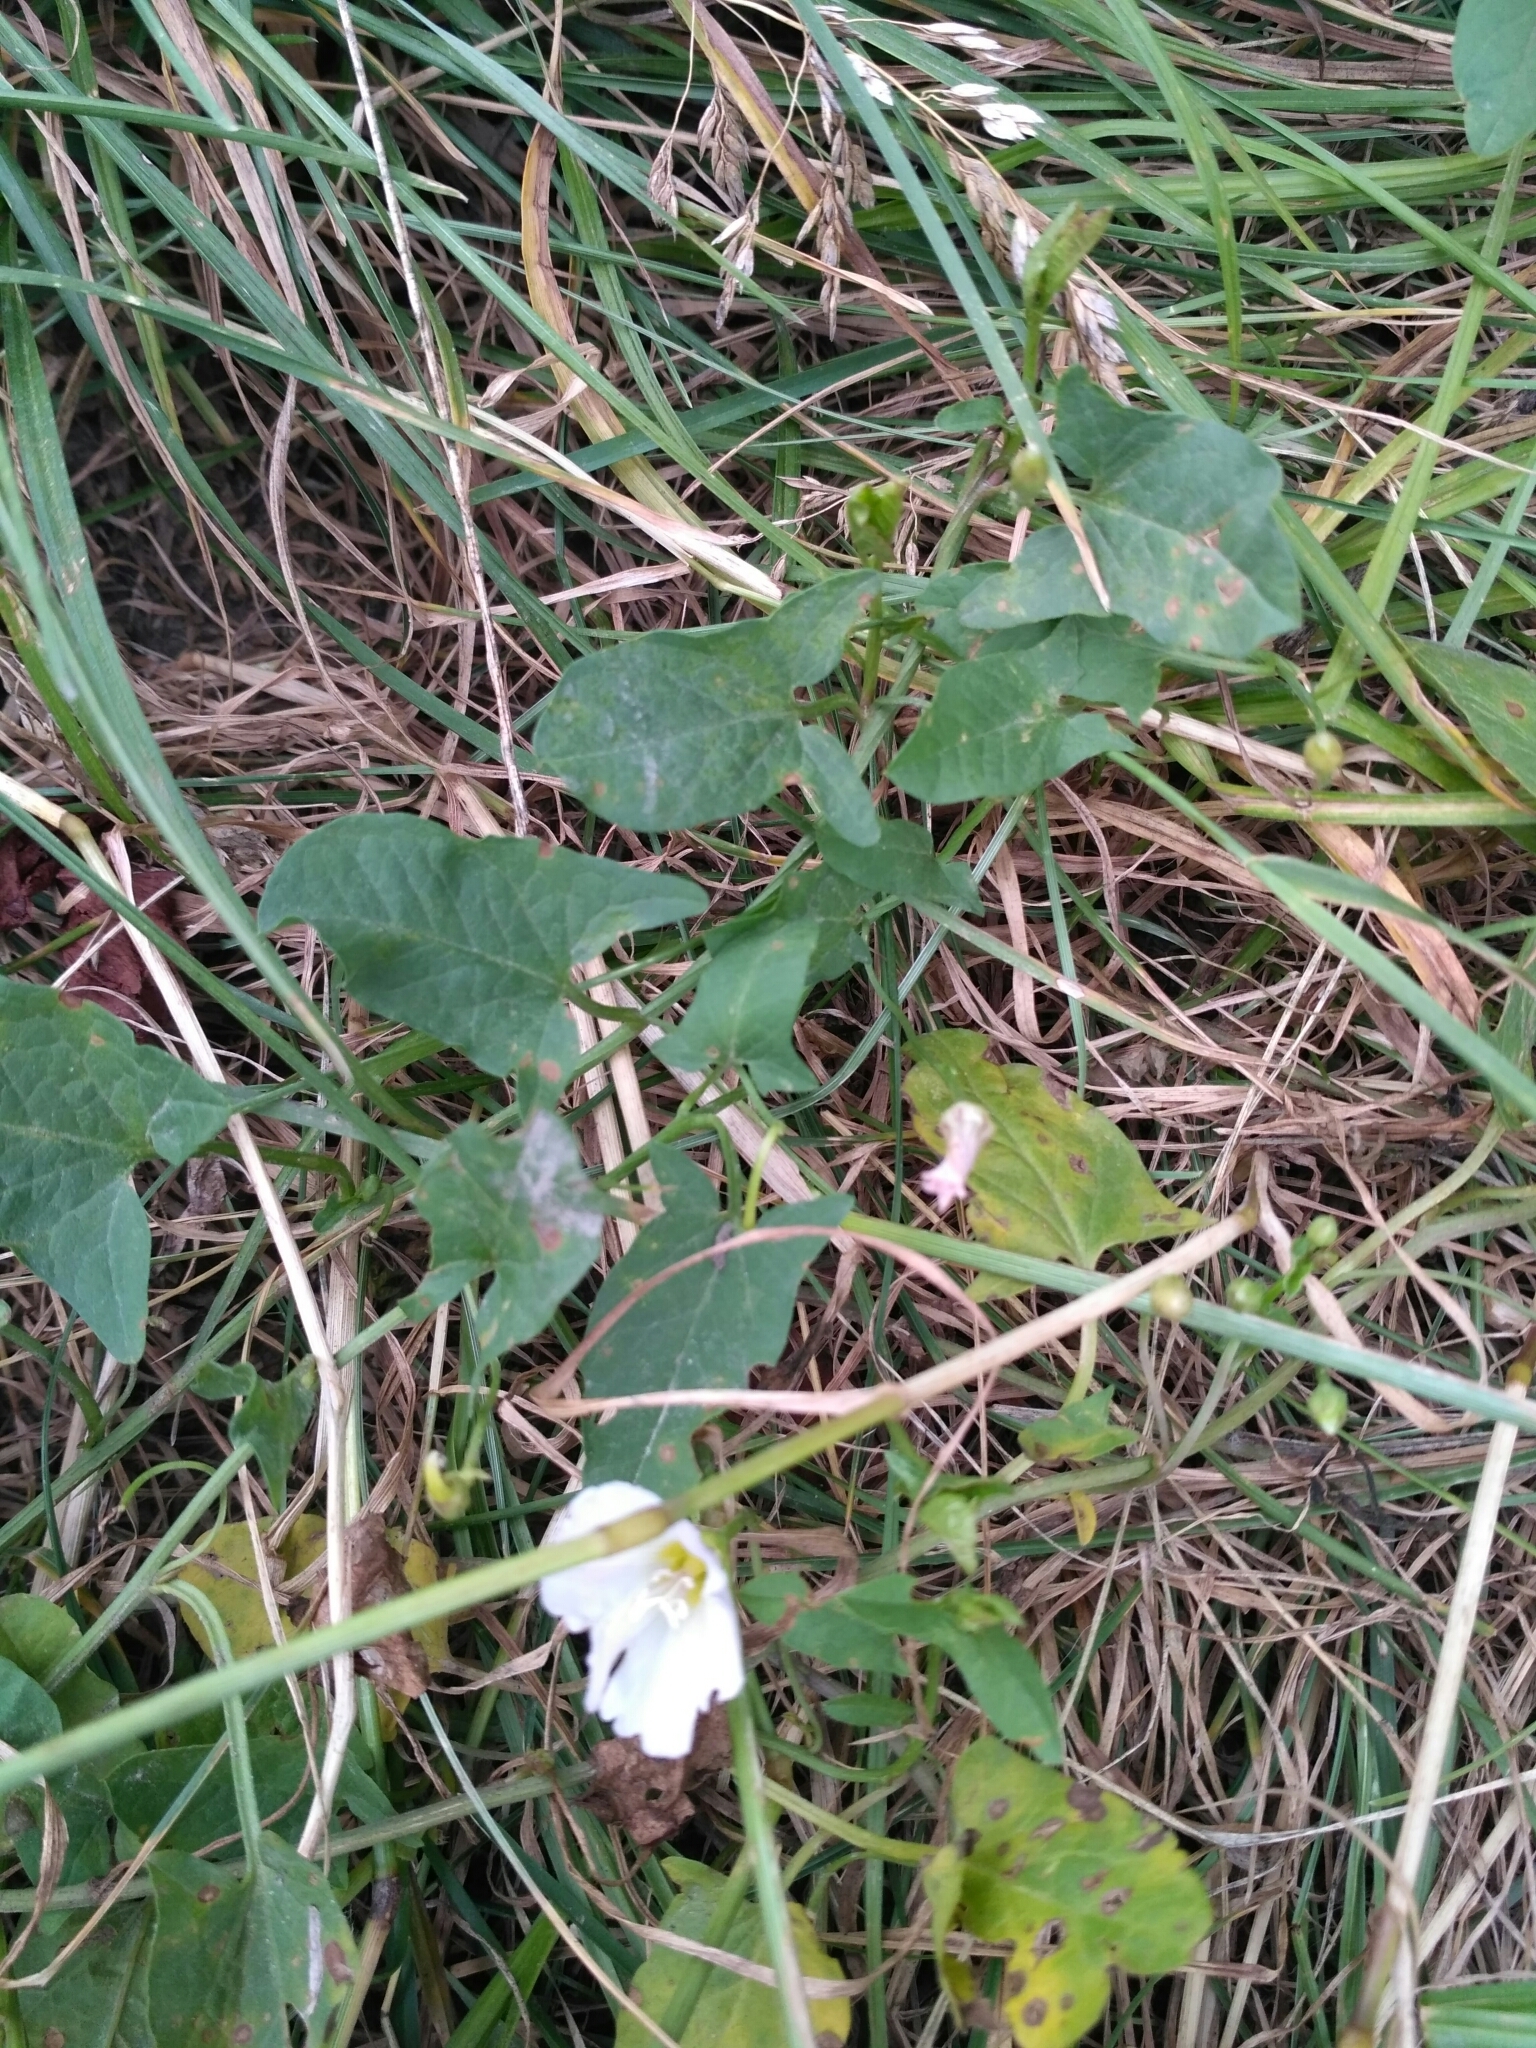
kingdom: Plantae
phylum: Tracheophyta
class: Magnoliopsida
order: Solanales
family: Convolvulaceae
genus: Convolvulus
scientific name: Convolvulus arvensis
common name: Field bindweed
